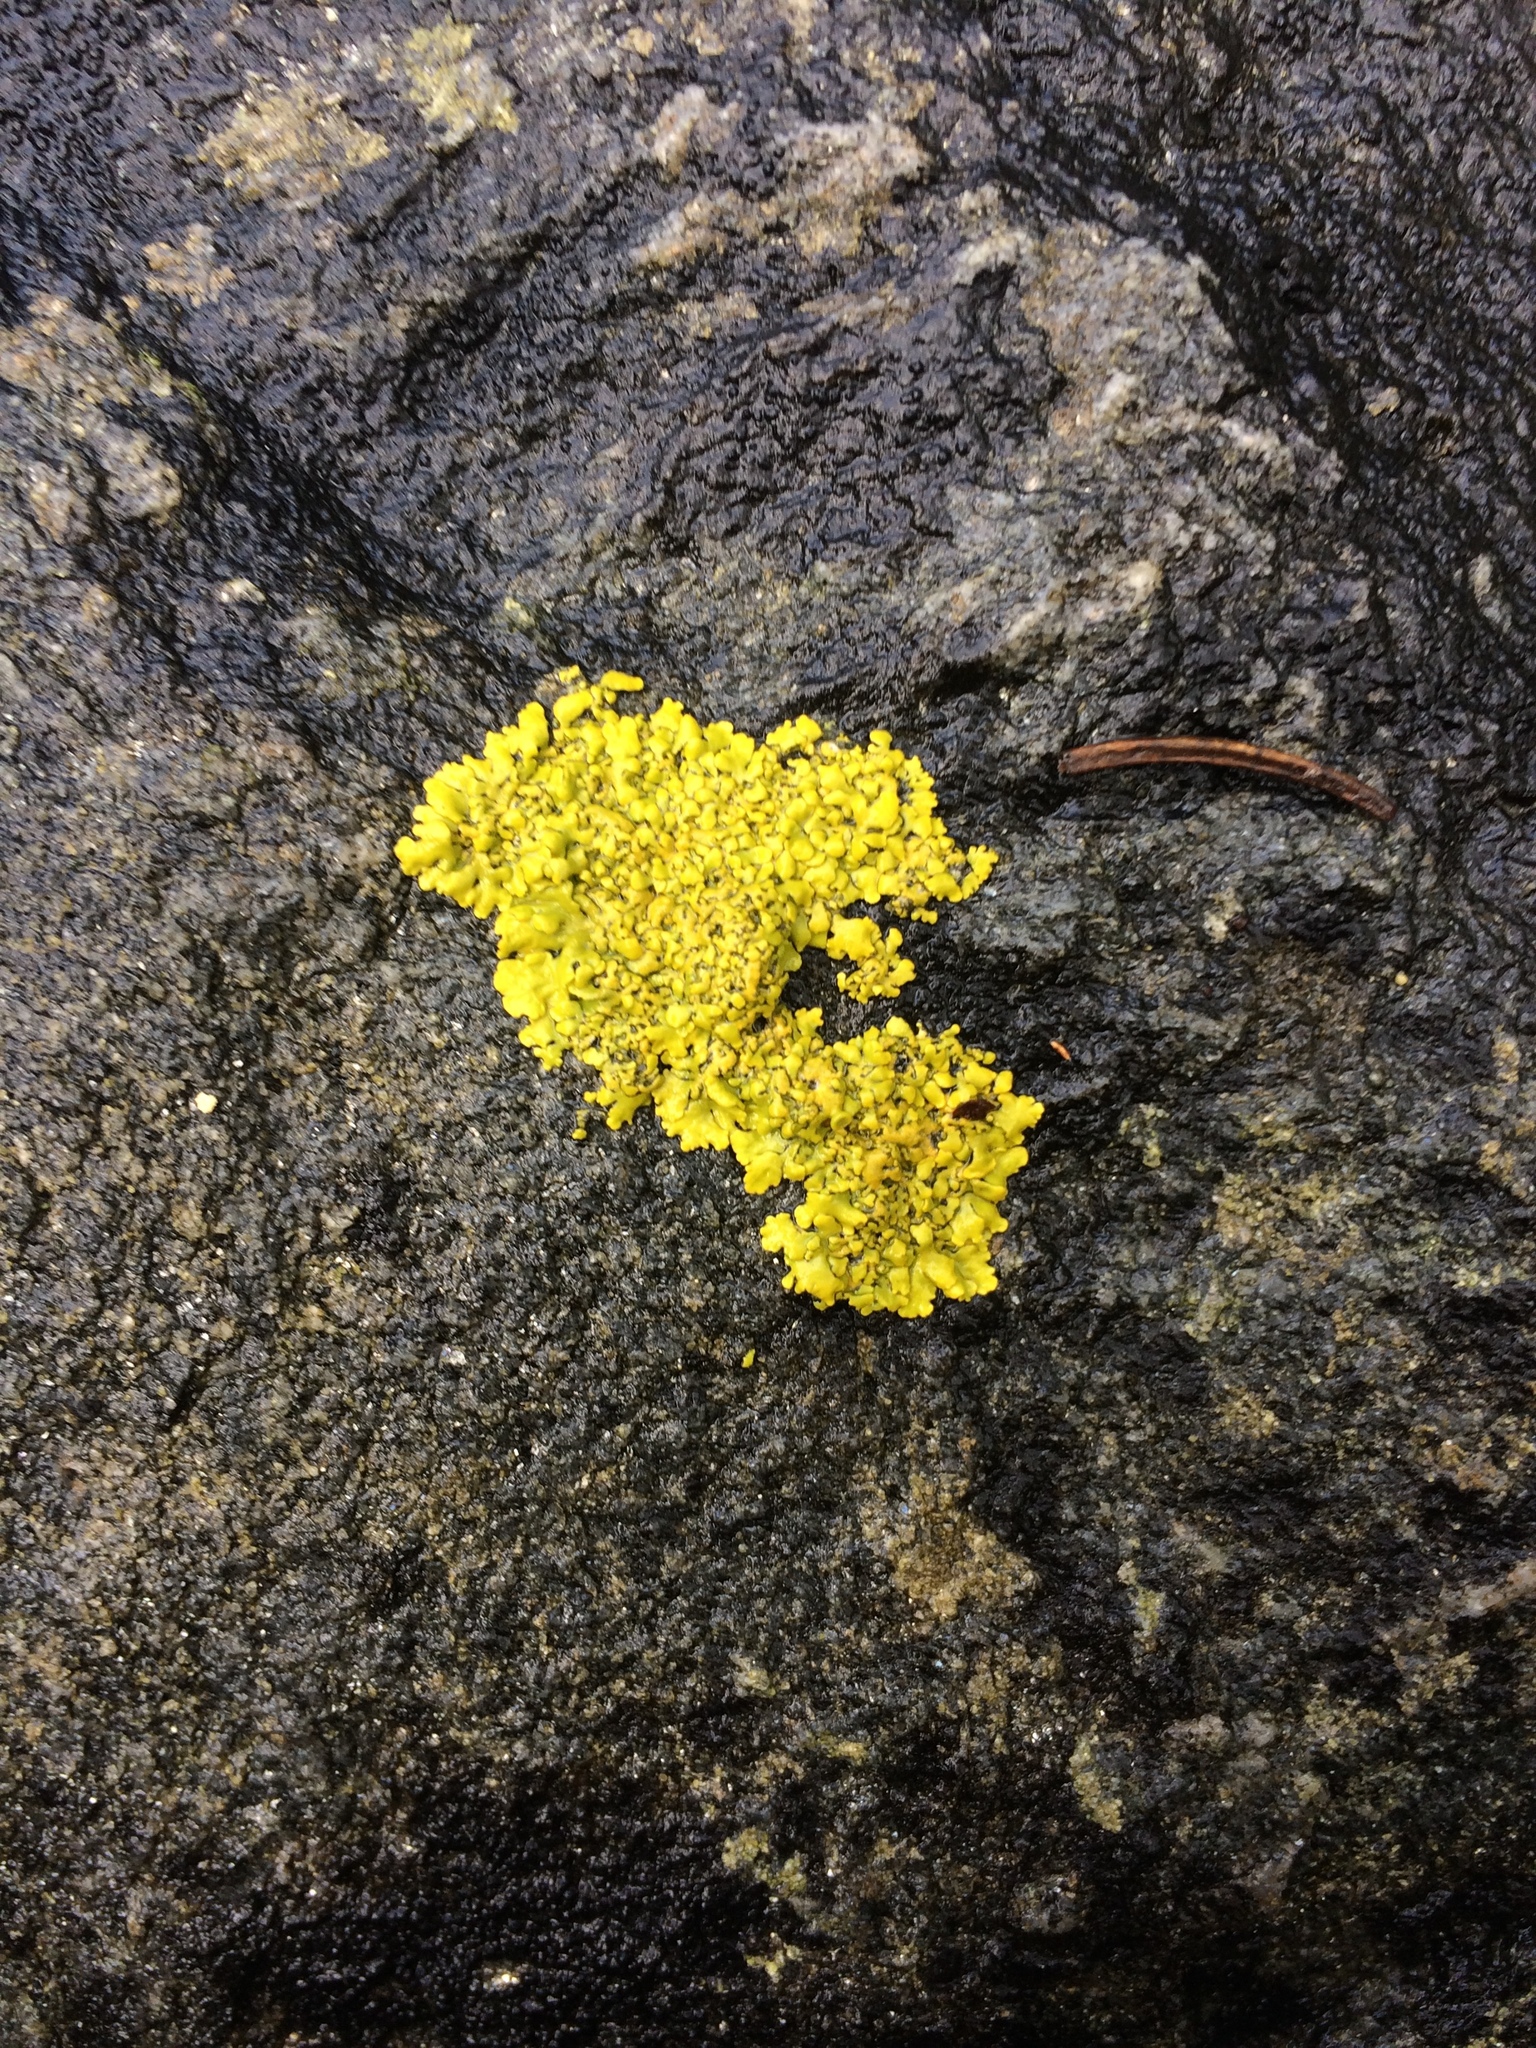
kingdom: Fungi
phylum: Ascomycota
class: Lecanoromycetes
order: Teloschistales
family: Teloschistaceae
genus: Xanthoria
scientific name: Xanthoria parietina
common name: Common orange lichen
